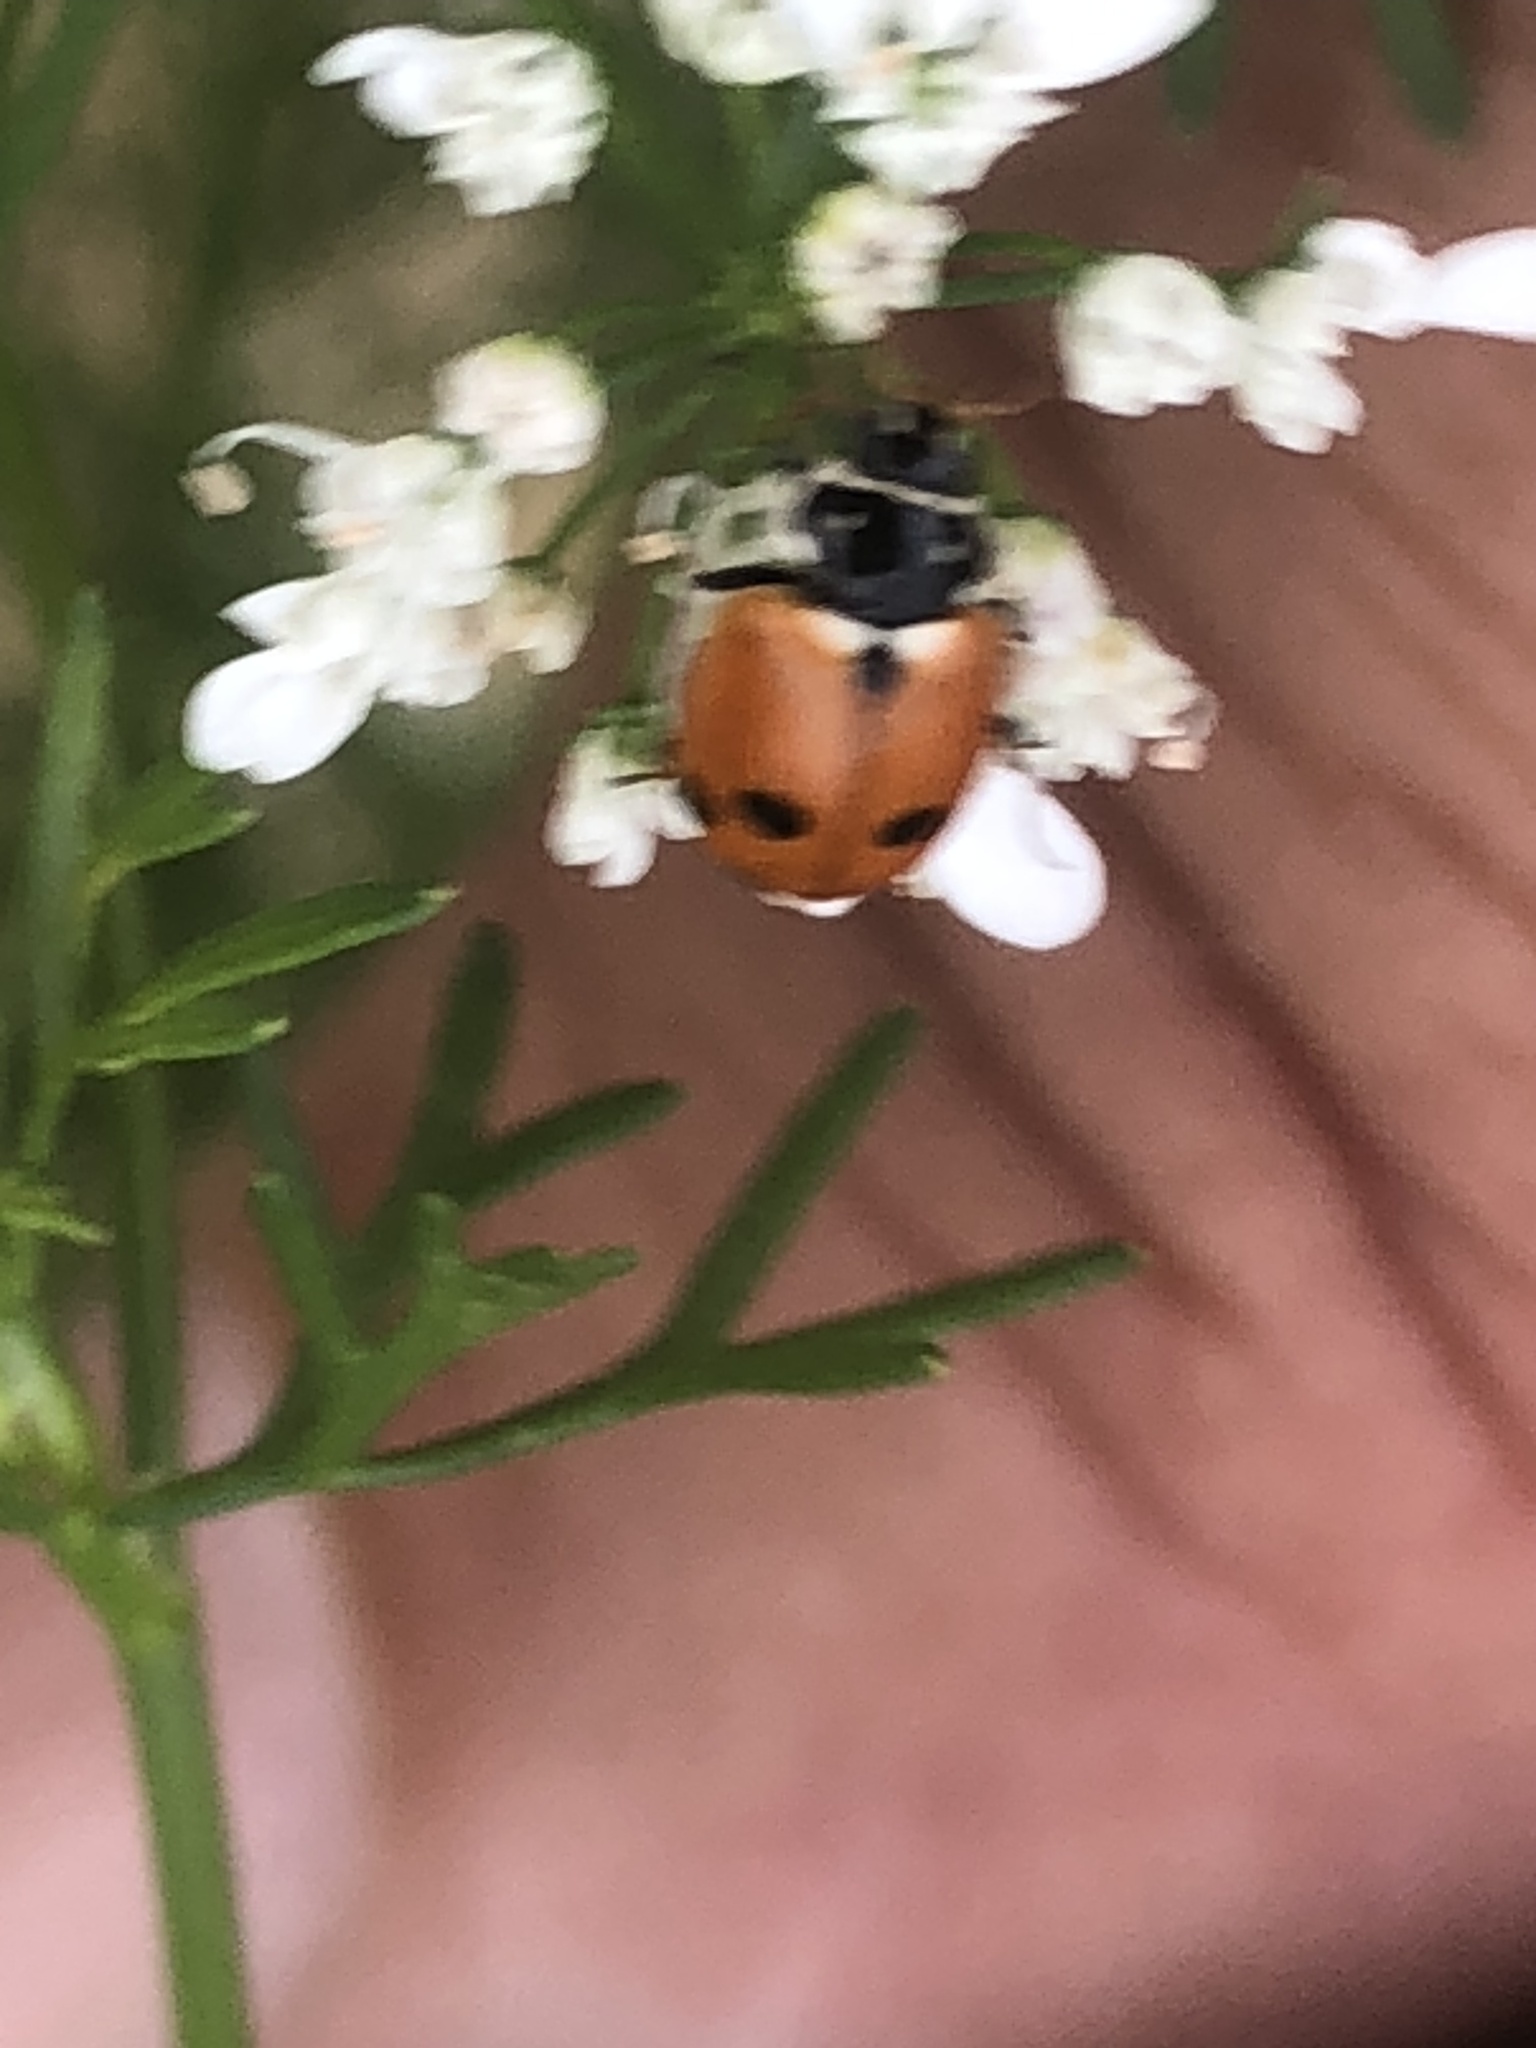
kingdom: Animalia
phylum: Arthropoda
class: Insecta
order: Coleoptera
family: Coccinellidae
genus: Hippodamia
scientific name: Hippodamia variegata
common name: Ladybird beetle
